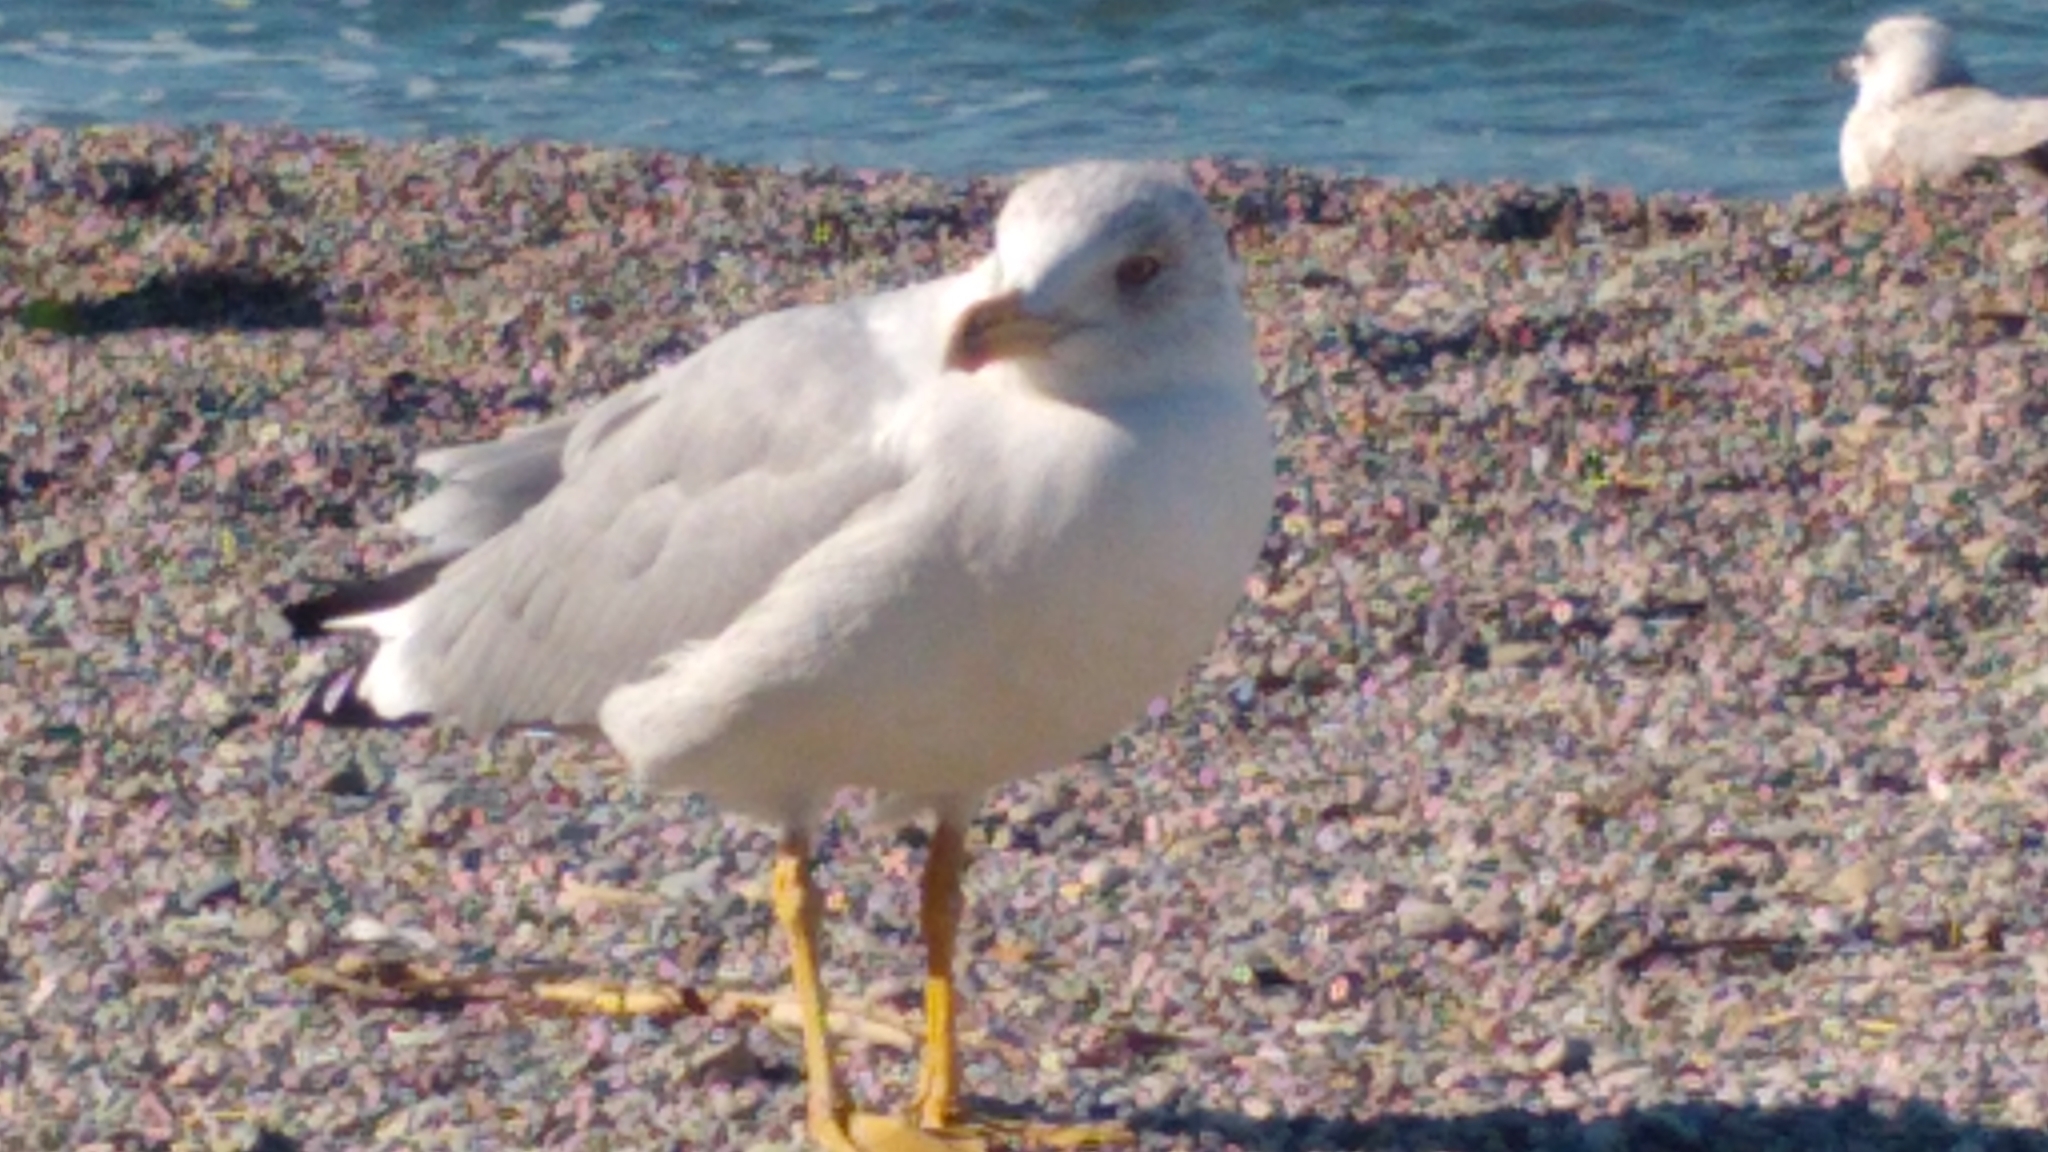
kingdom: Animalia
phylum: Chordata
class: Aves
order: Charadriiformes
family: Laridae
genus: Larus
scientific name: Larus michahellis
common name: Yellow-legged gull
